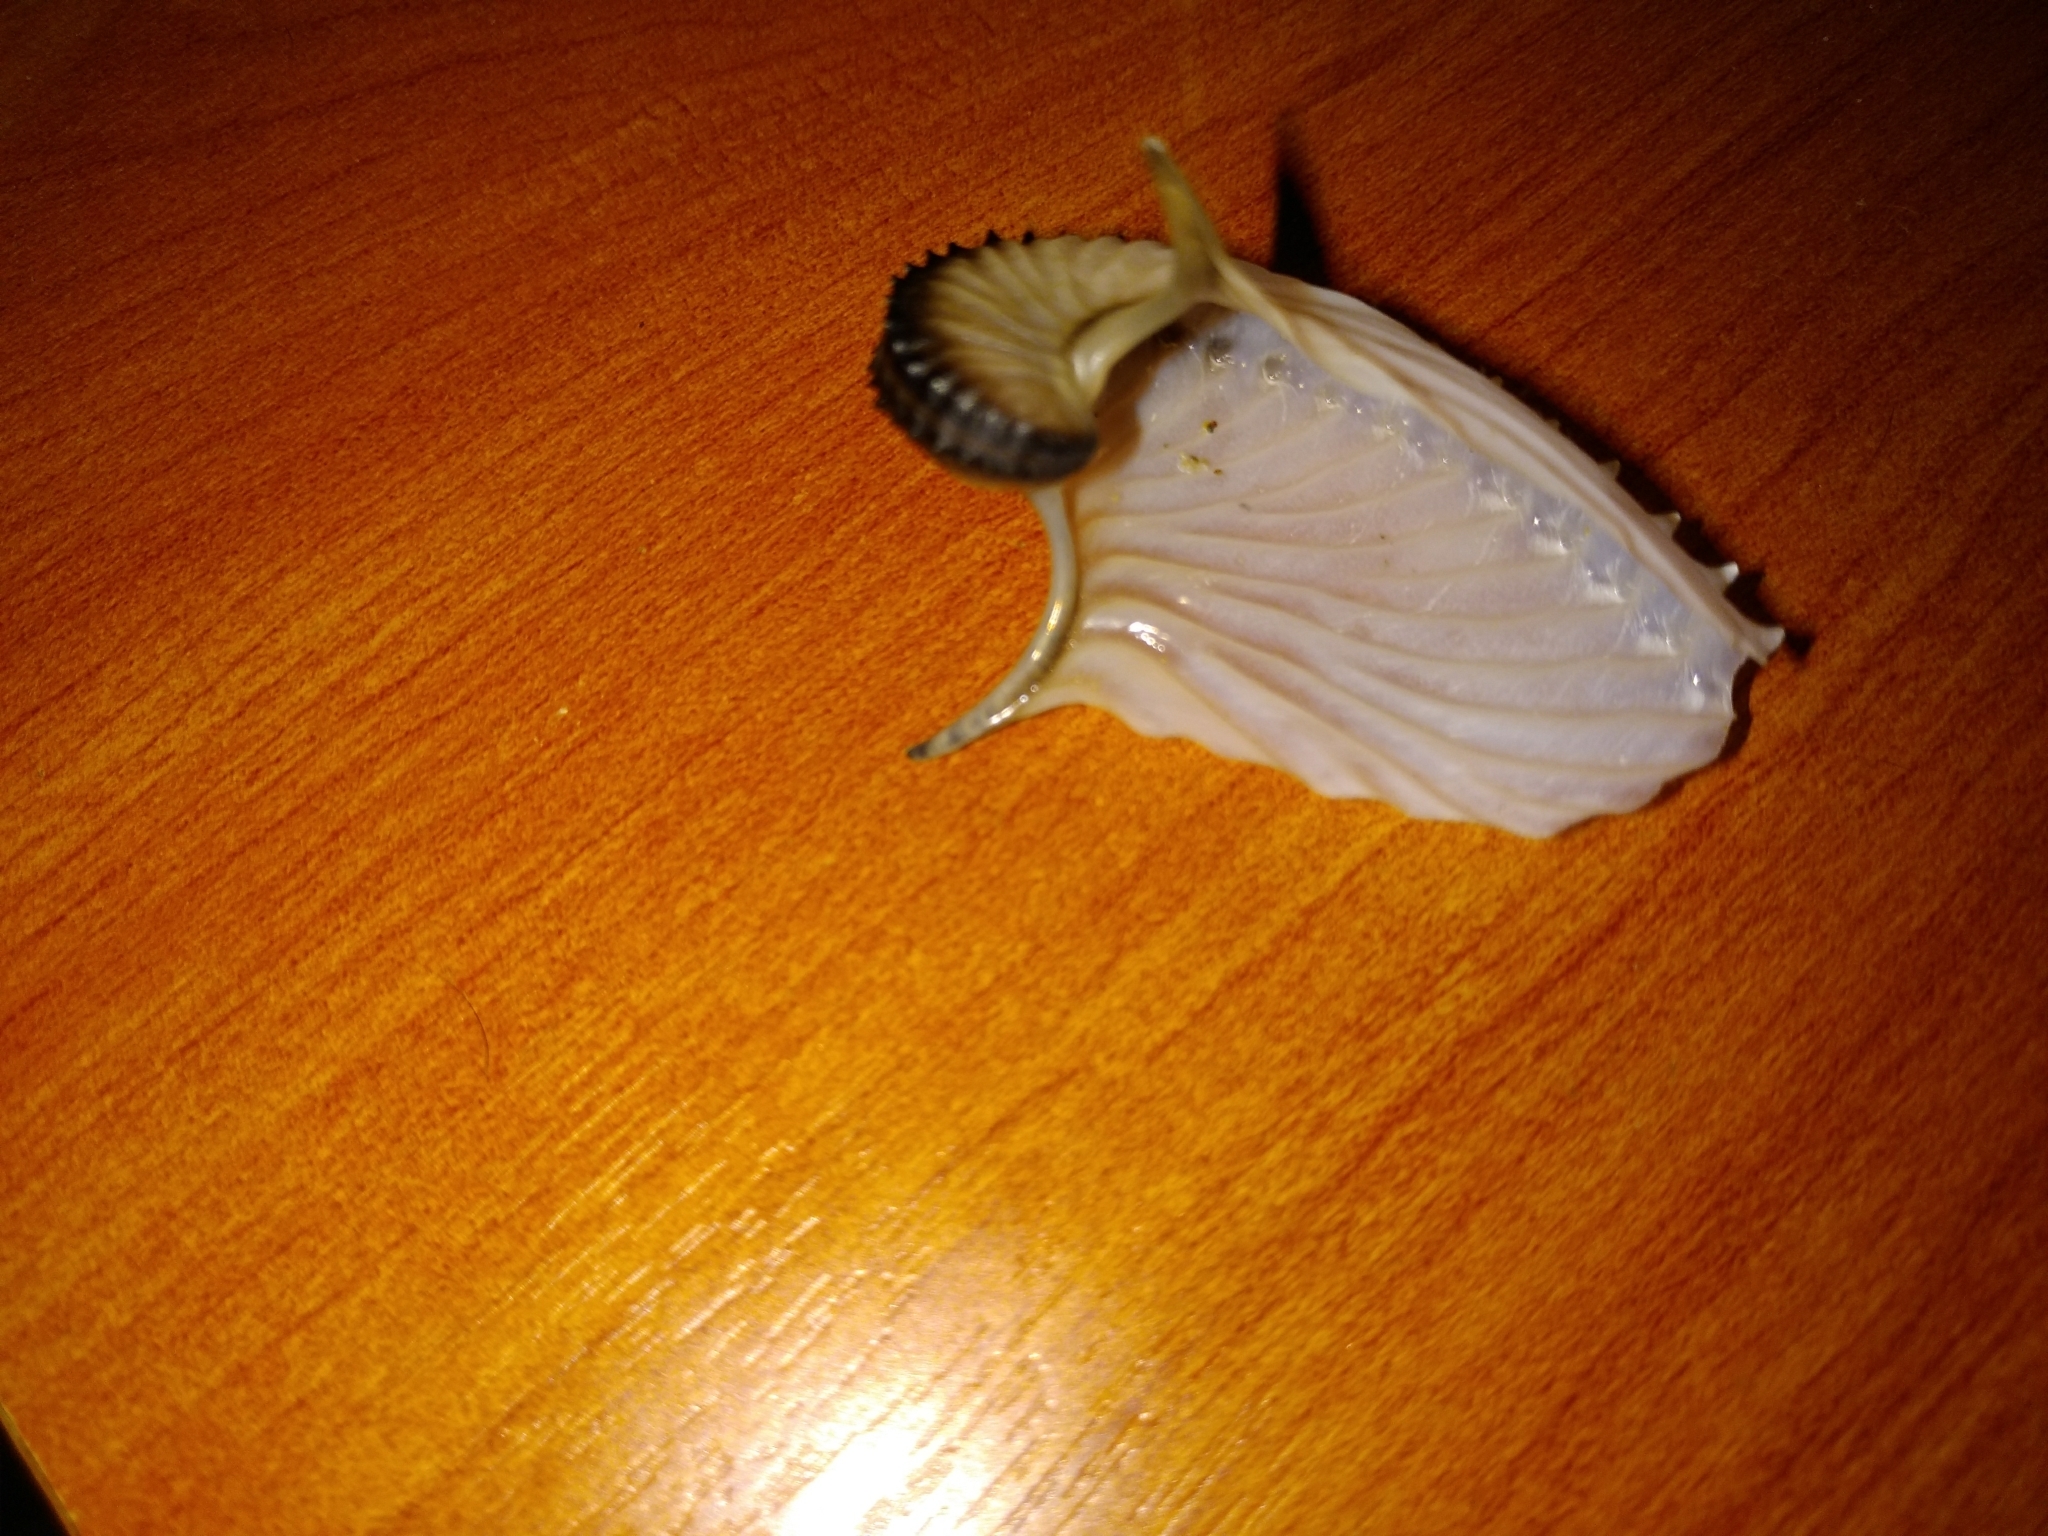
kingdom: Animalia
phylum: Mollusca
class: Cephalopoda
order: Octopoda
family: Argonautidae
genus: Argonauta
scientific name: Argonauta argo
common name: Common paper nautilus
